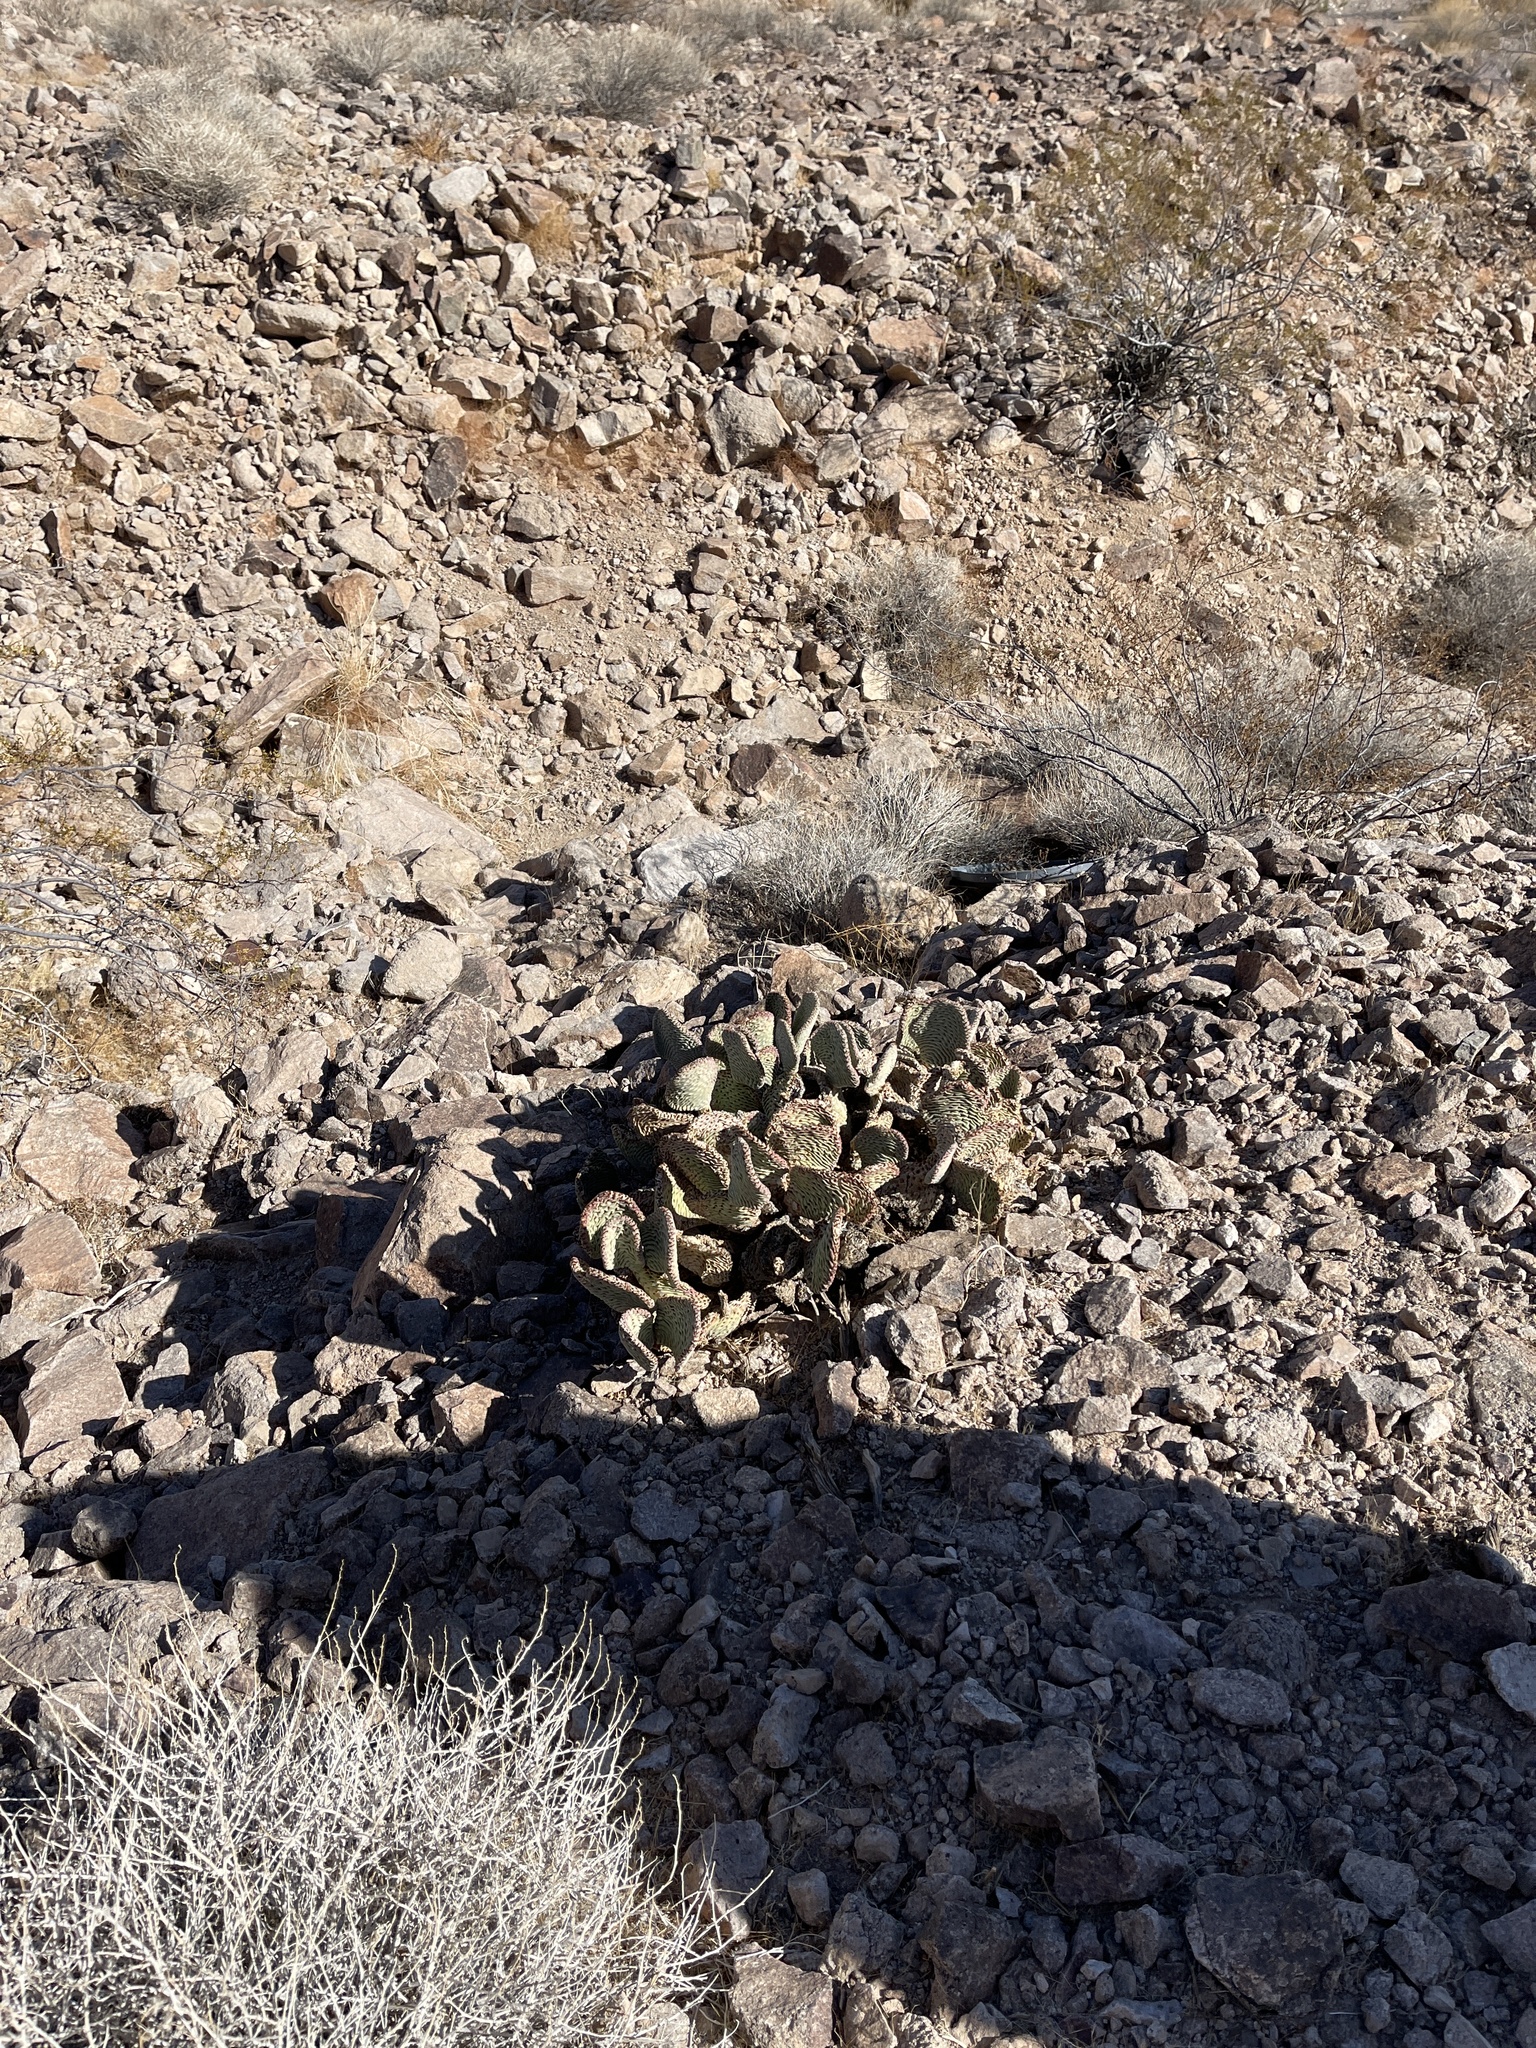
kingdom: Plantae
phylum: Tracheophyta
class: Magnoliopsida
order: Caryophyllales
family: Cactaceae
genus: Opuntia
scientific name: Opuntia basilaris
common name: Beavertail prickly-pear
